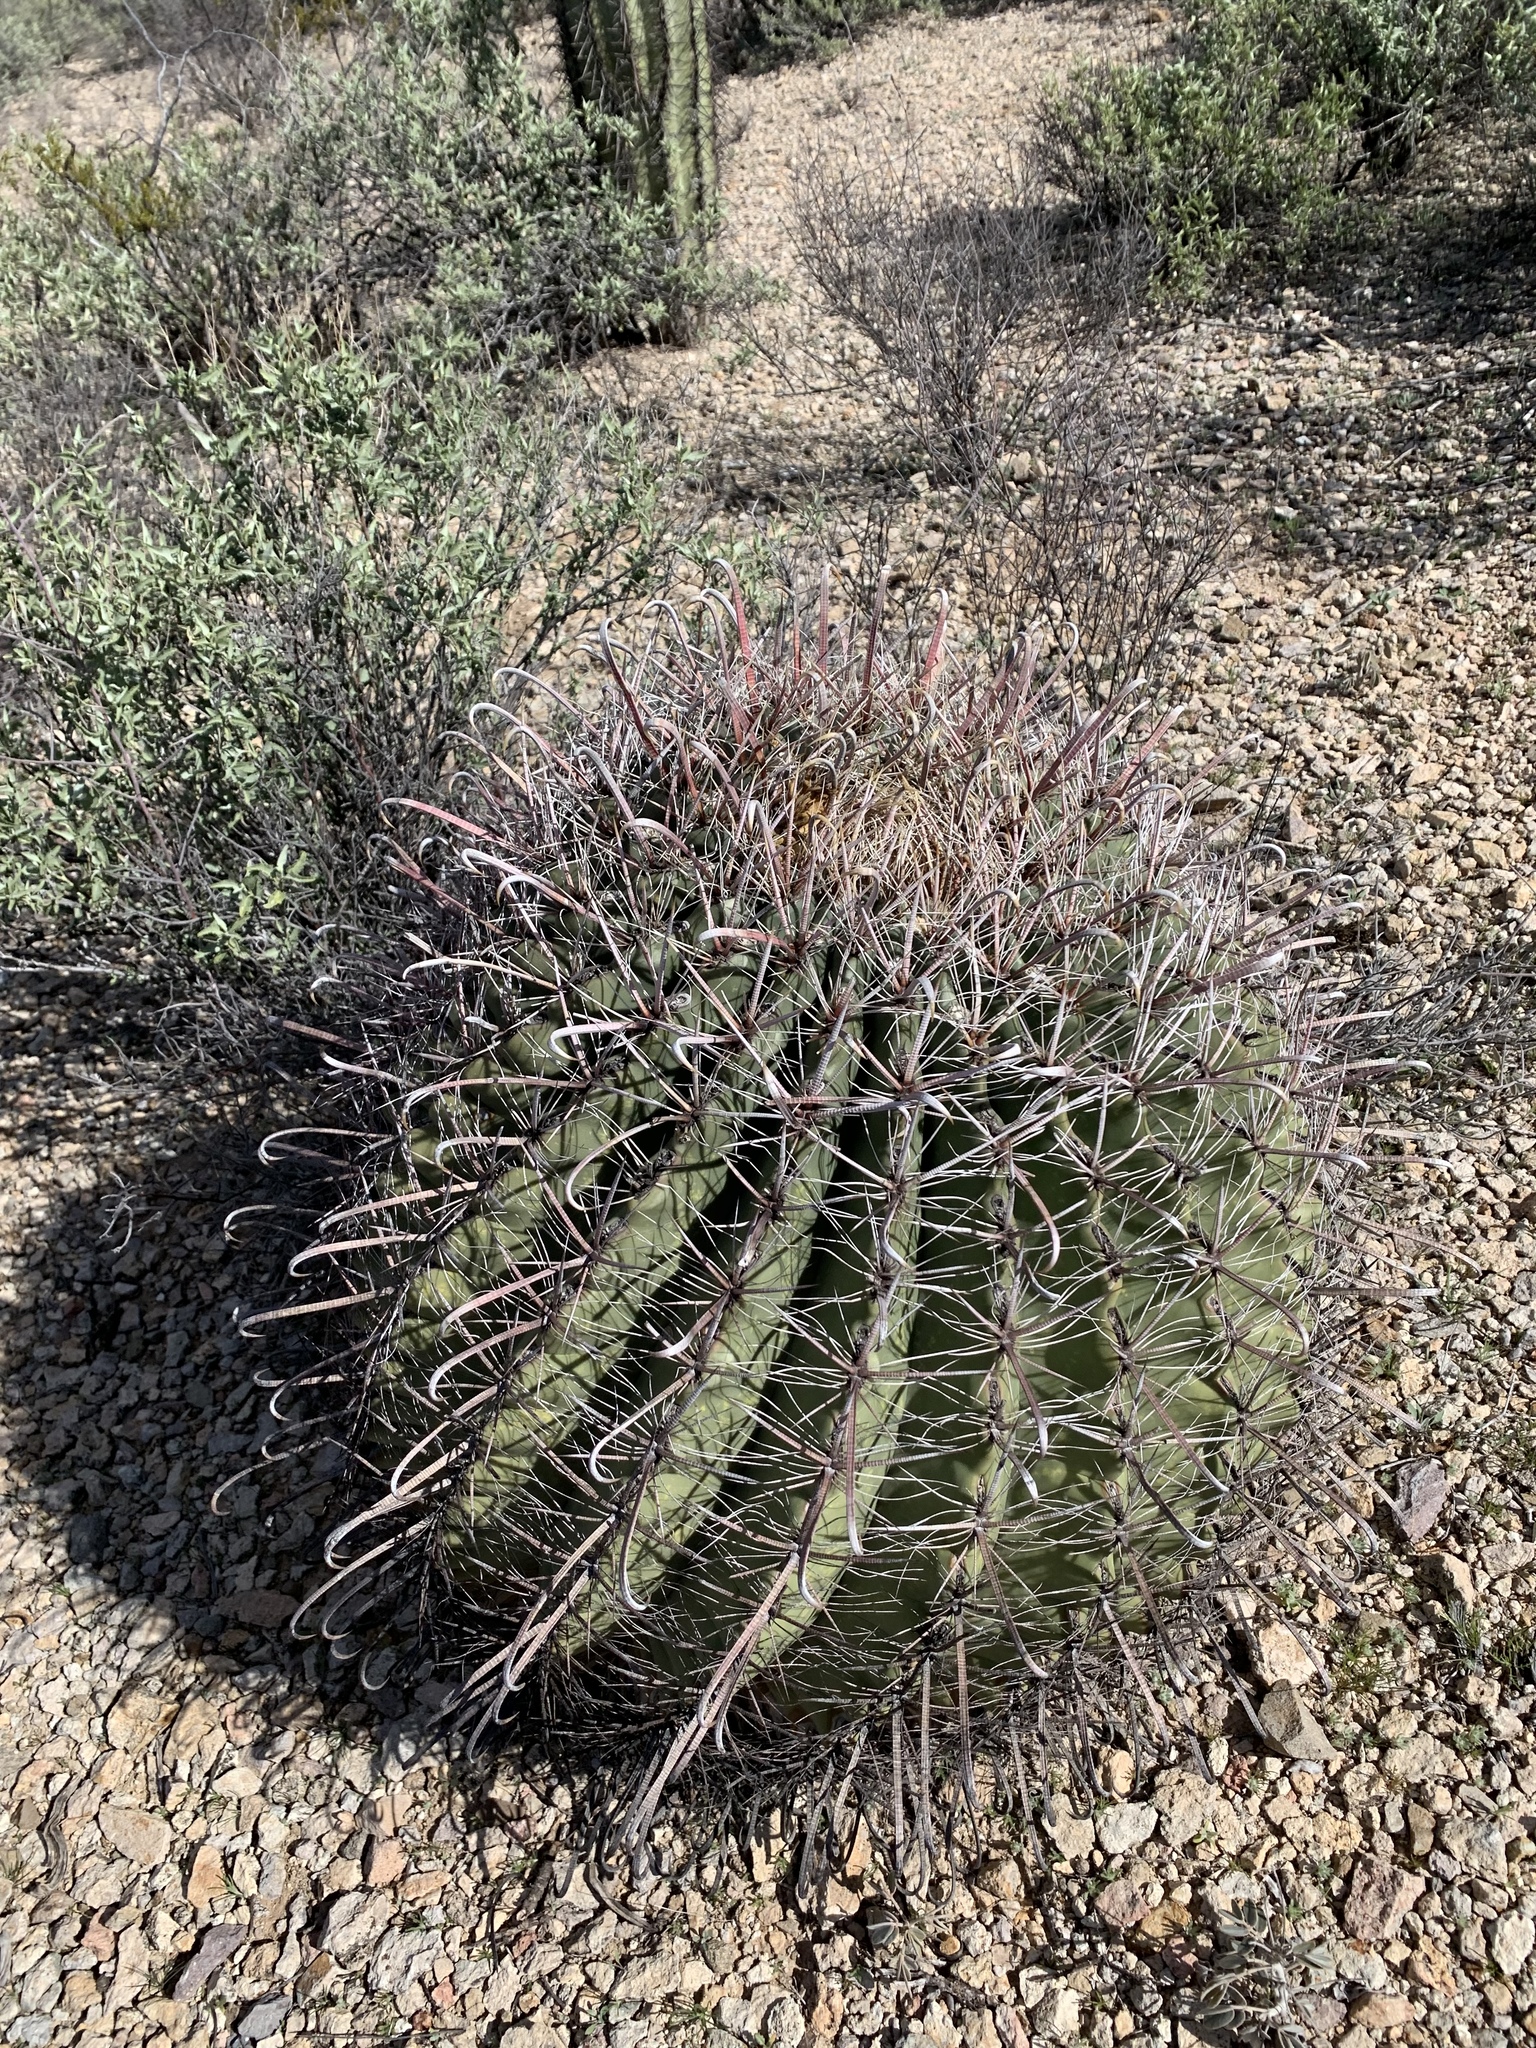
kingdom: Plantae
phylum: Tracheophyta
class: Magnoliopsida
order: Caryophyllales
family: Cactaceae
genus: Ferocactus
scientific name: Ferocactus wislizeni
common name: Candy barrel cactus
